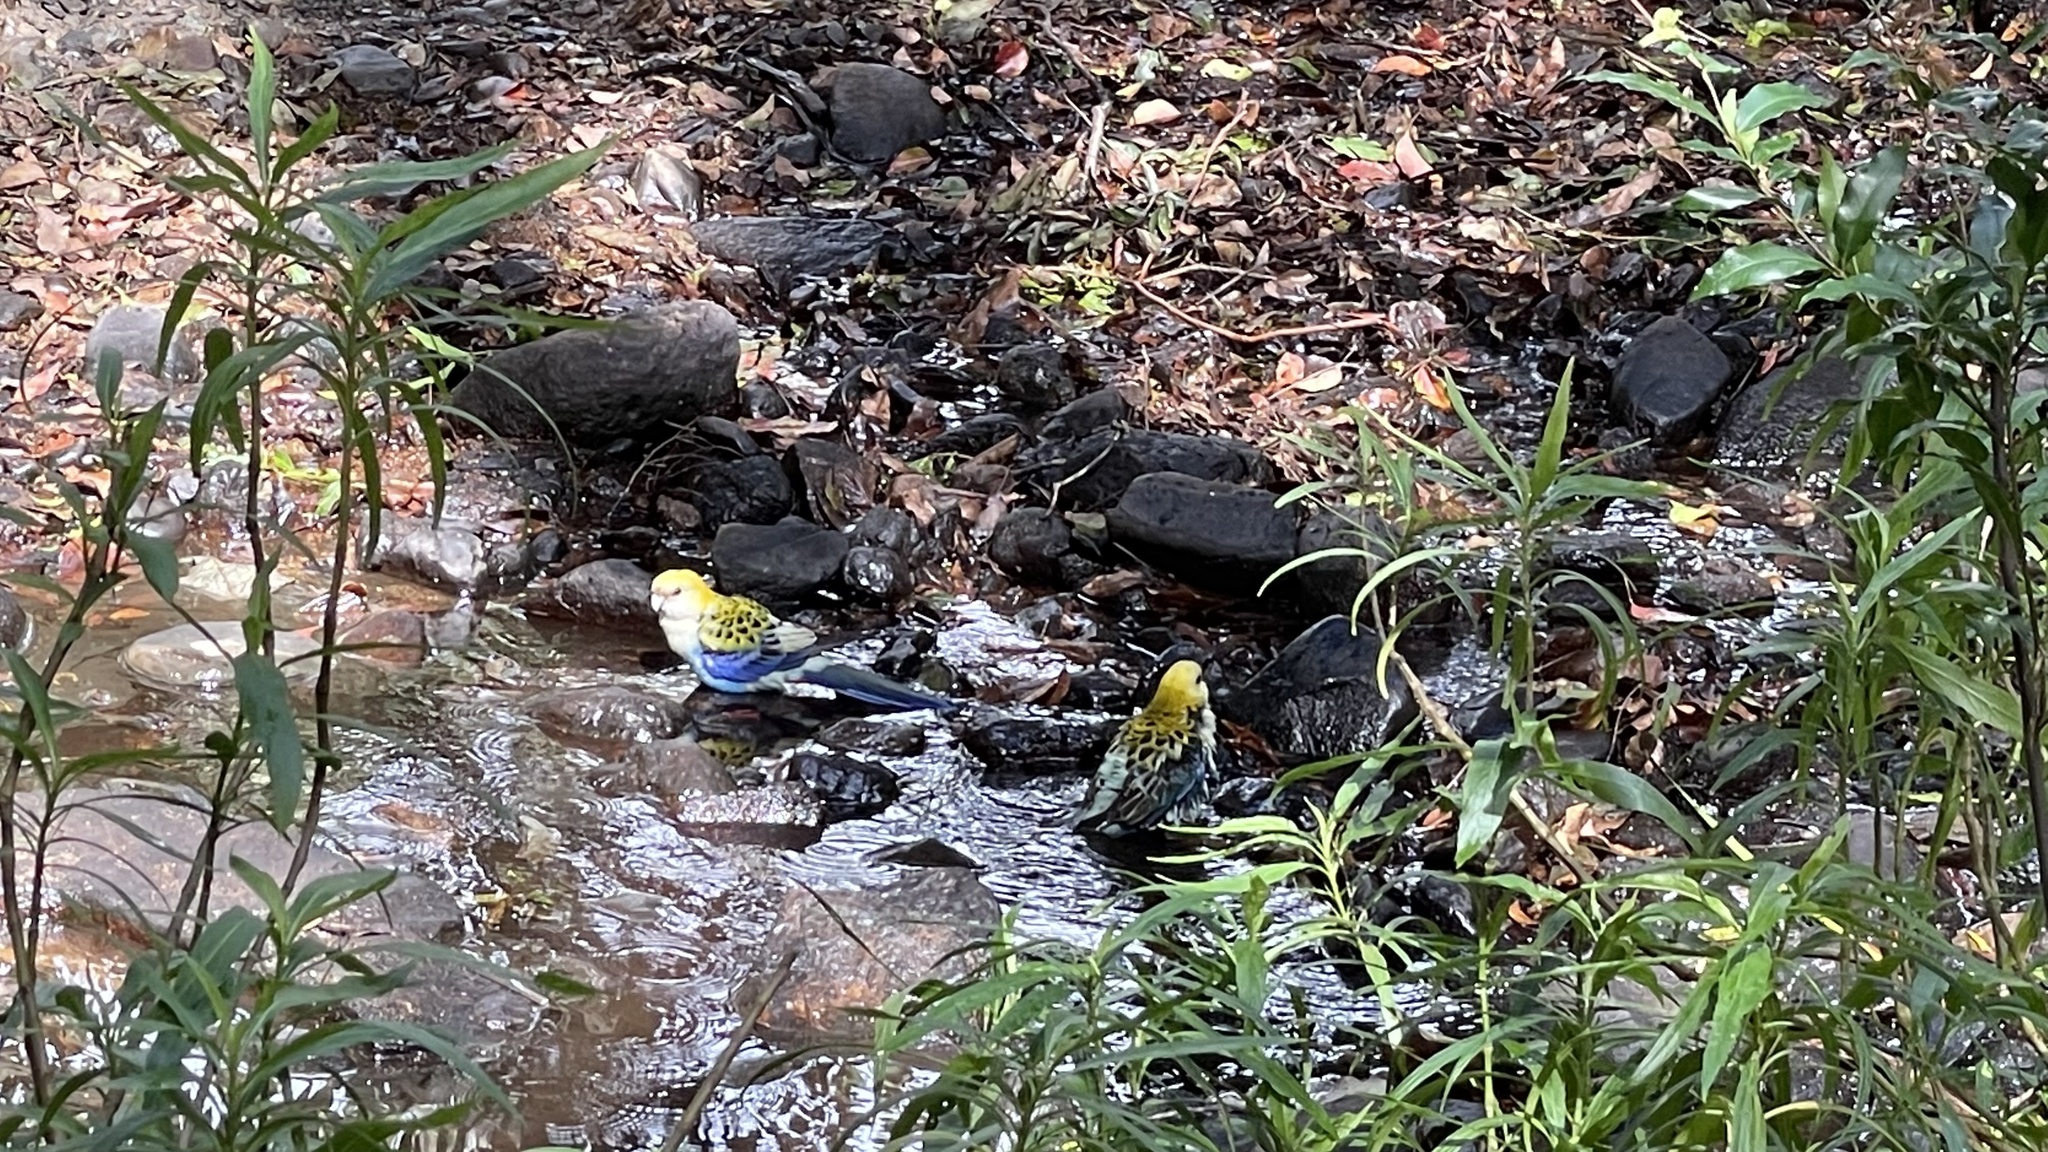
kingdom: Animalia
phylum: Chordata
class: Aves
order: Psittaciformes
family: Psittacidae
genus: Platycercus
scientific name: Platycercus adscitus
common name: Pale-headed rosella
